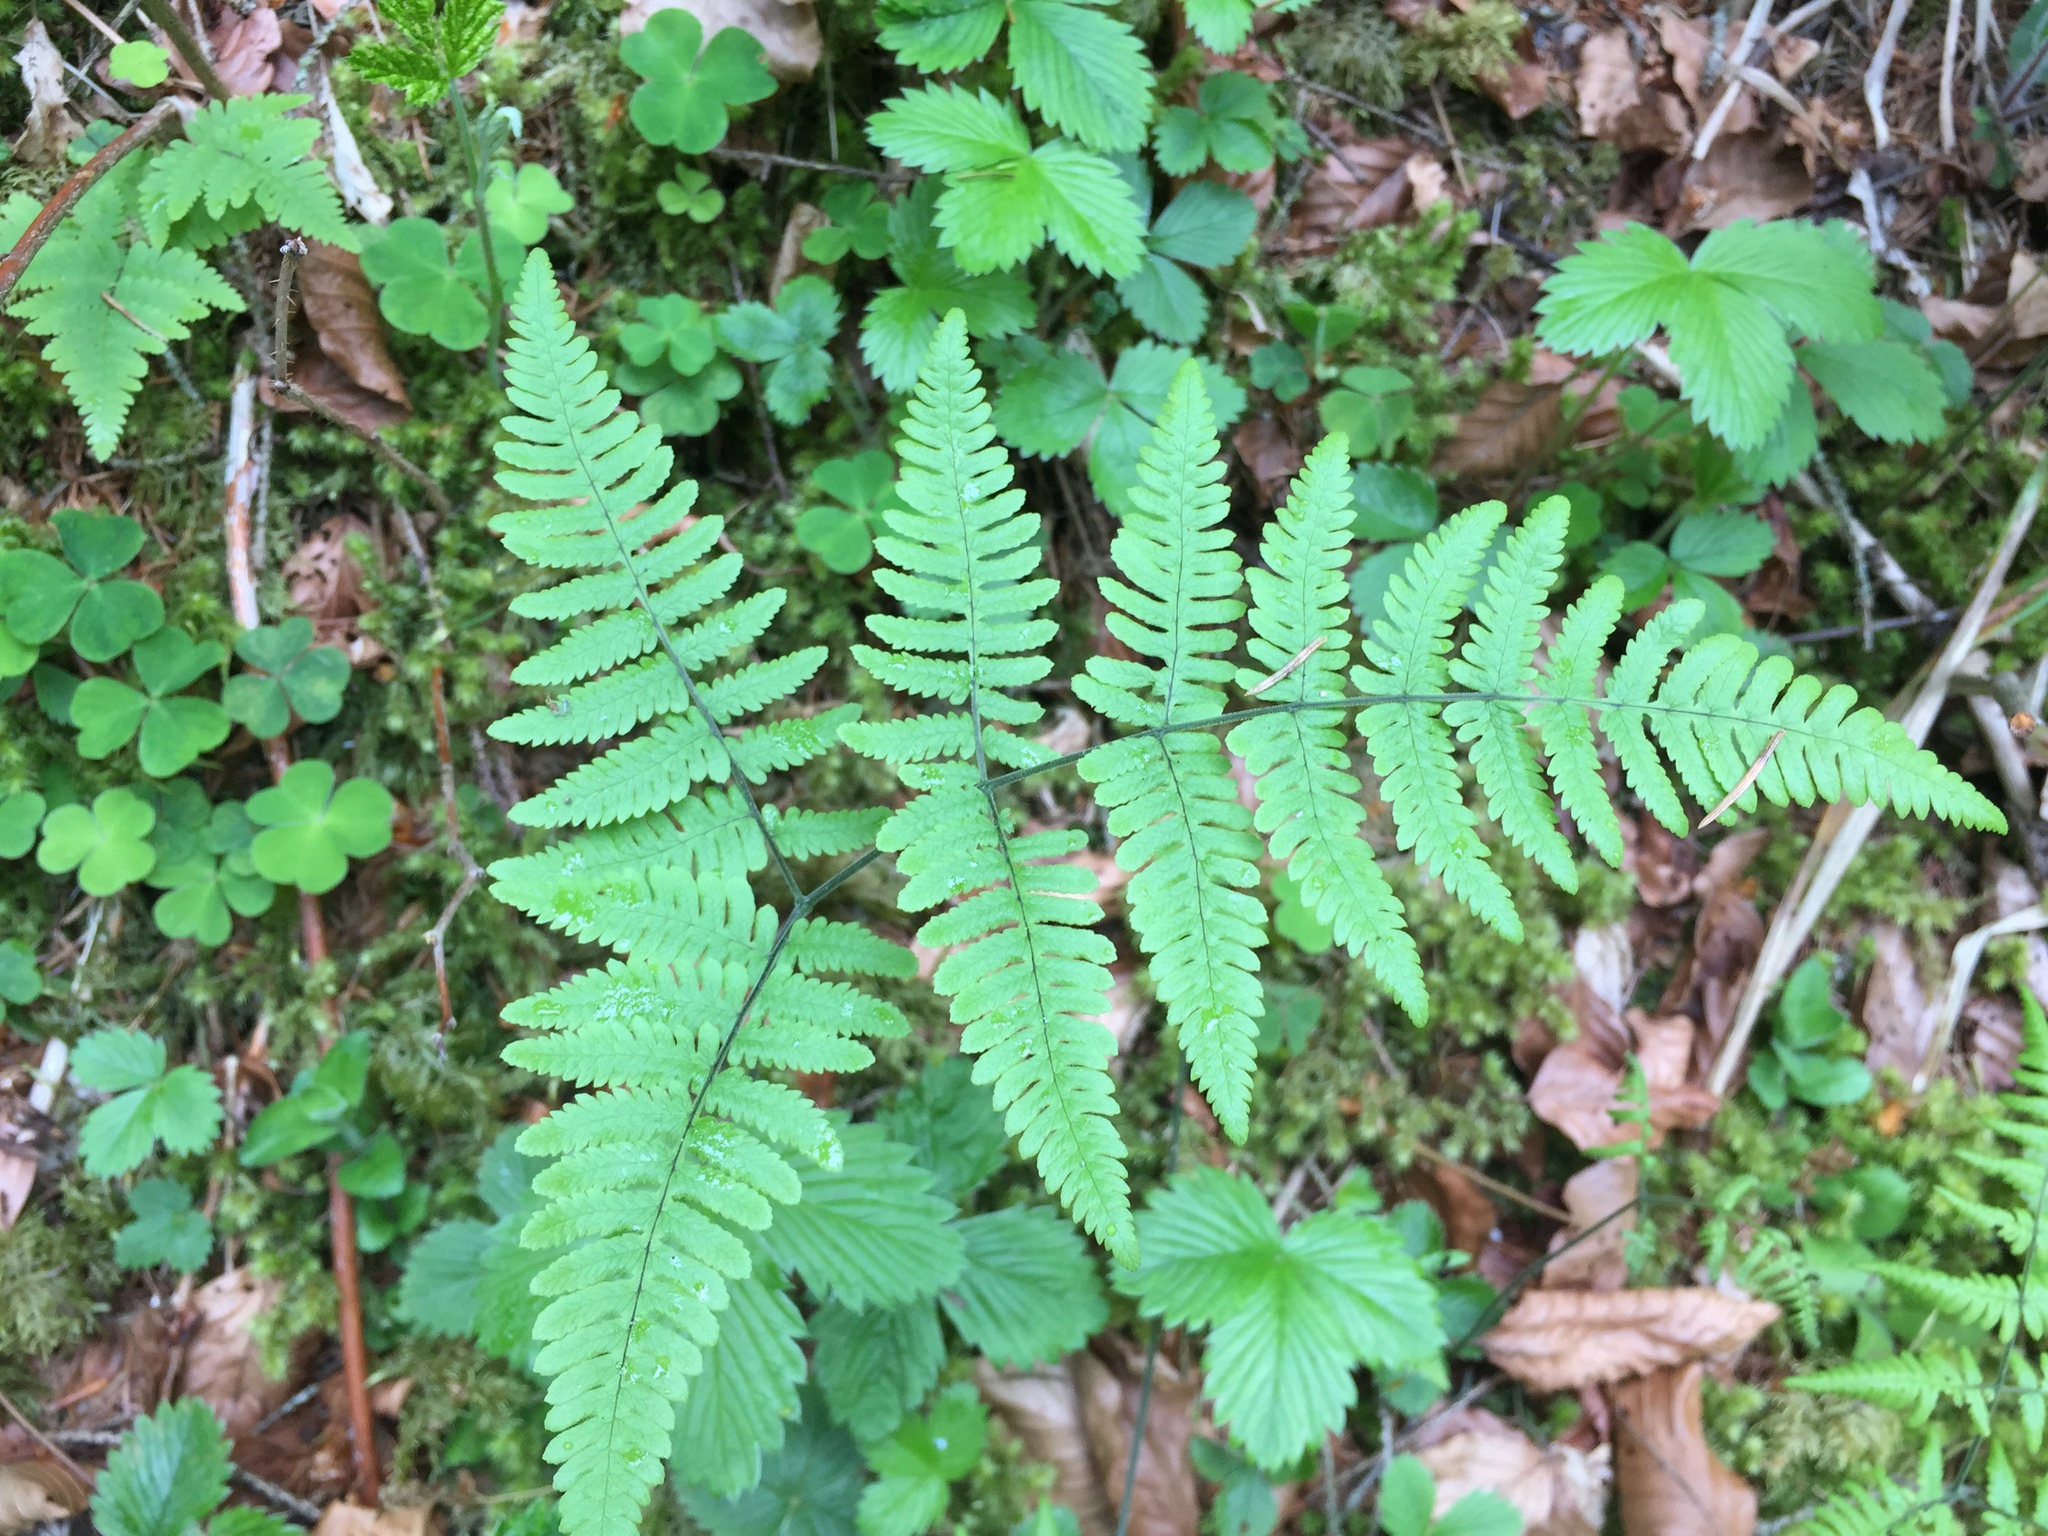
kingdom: Plantae
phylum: Tracheophyta
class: Polypodiopsida
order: Polypodiales
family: Cystopteridaceae
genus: Gymnocarpium
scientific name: Gymnocarpium robertianum
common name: Limestone fern
